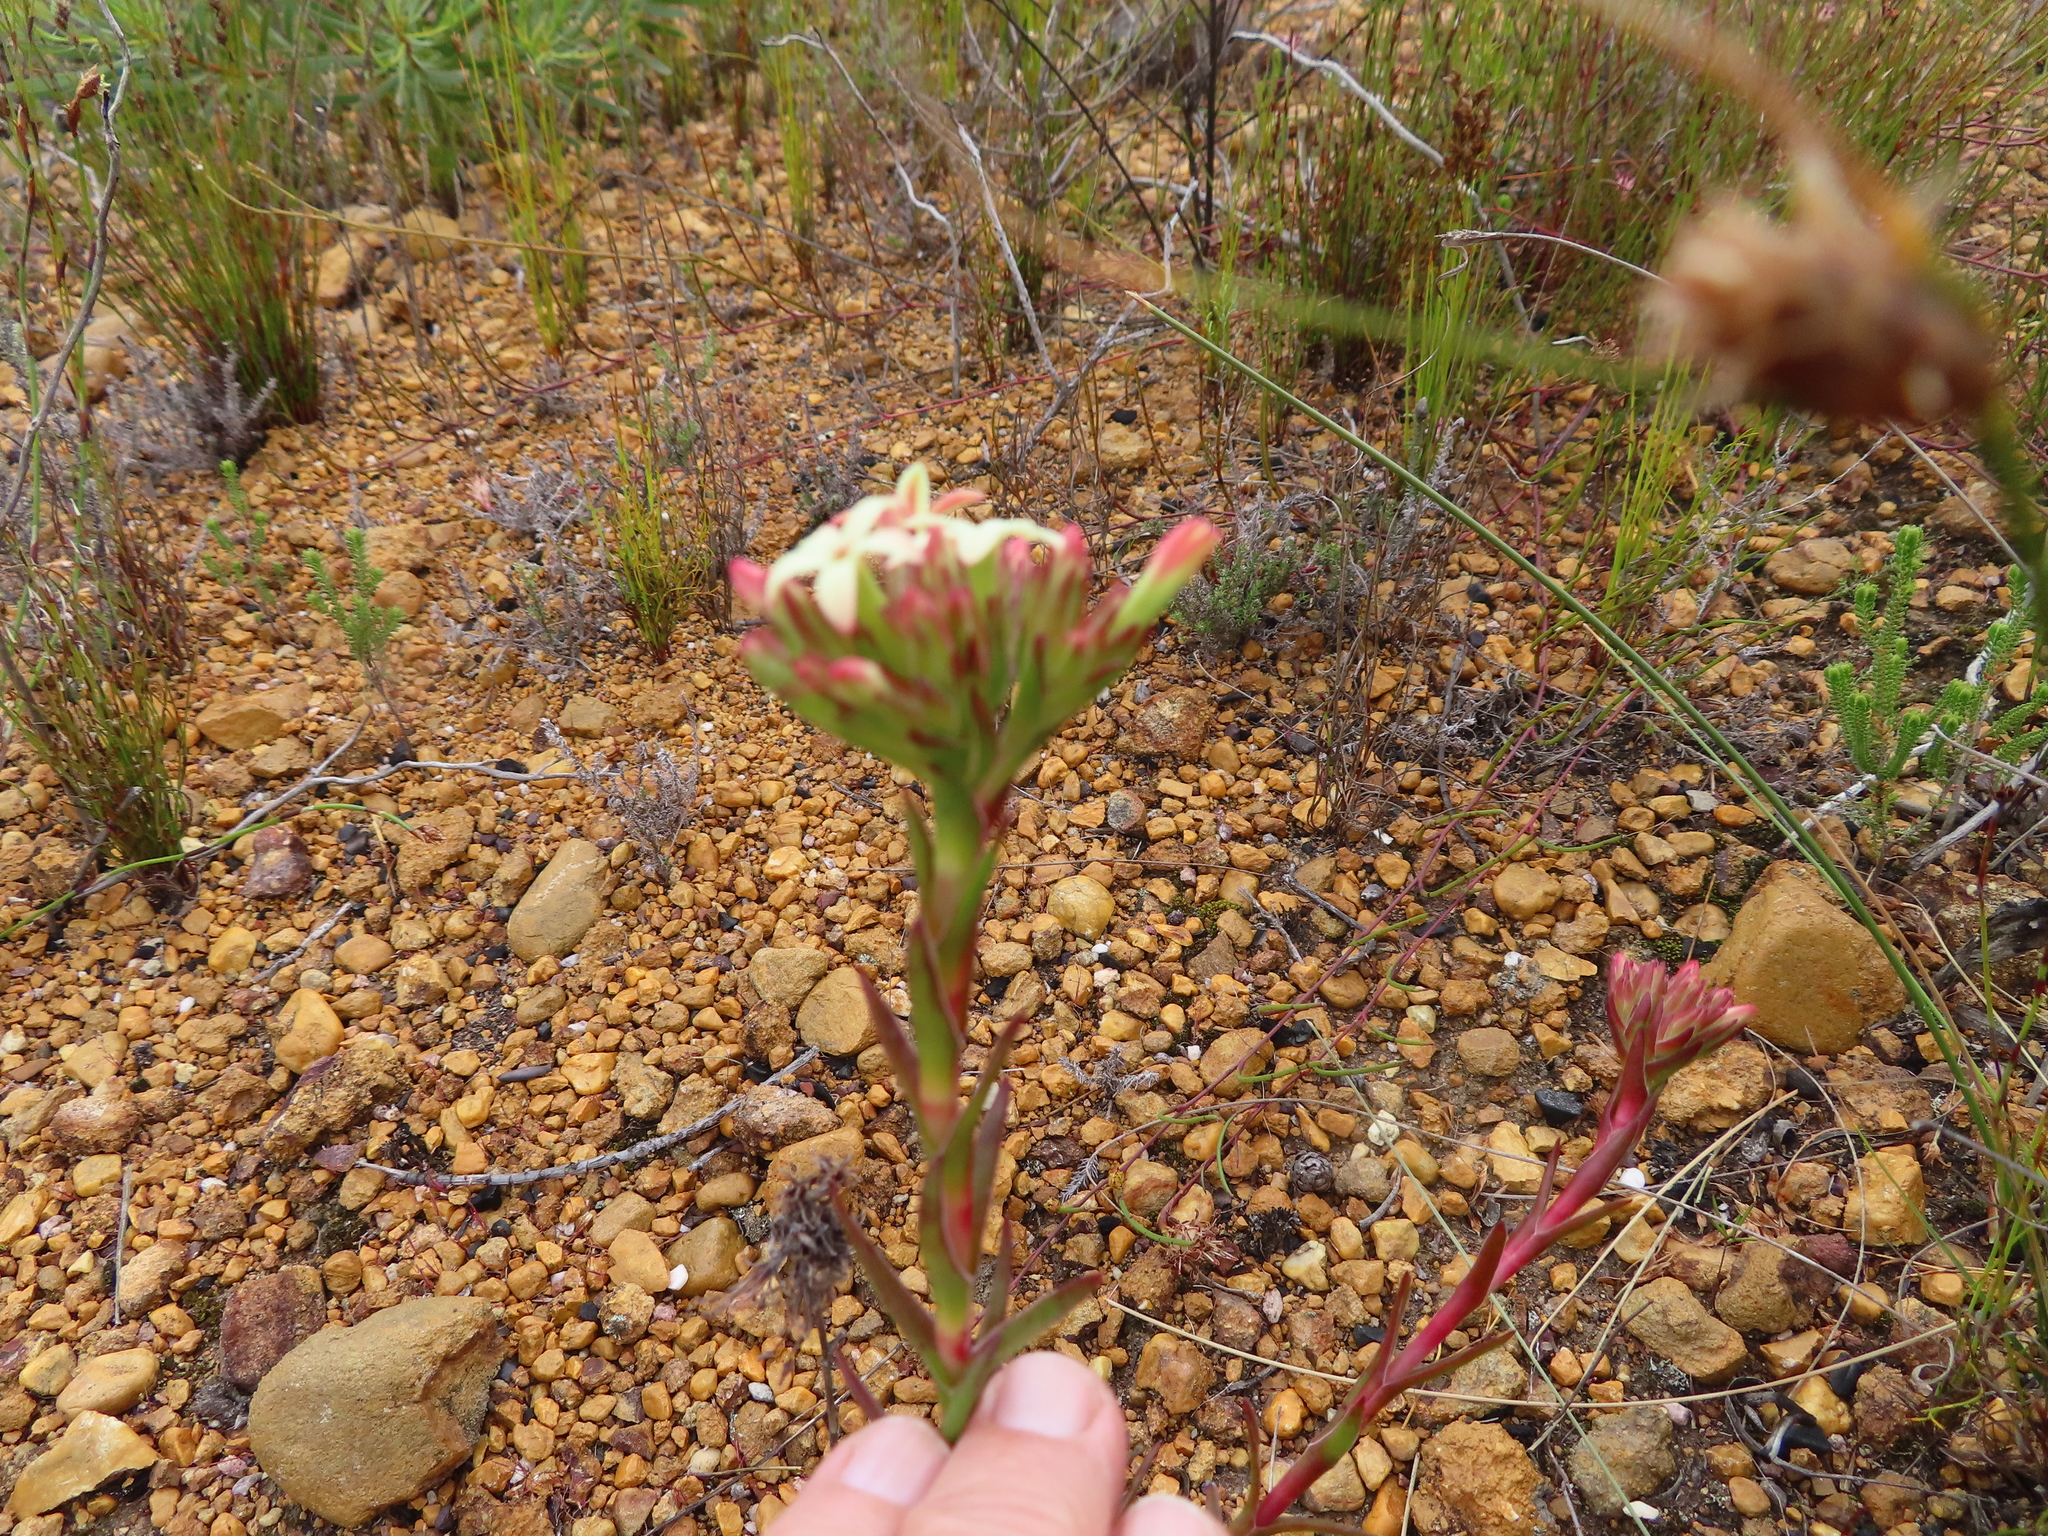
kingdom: Plantae
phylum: Tracheophyta
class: Magnoliopsida
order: Saxifragales
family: Crassulaceae
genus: Crassula
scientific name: Crassula fascicularis
